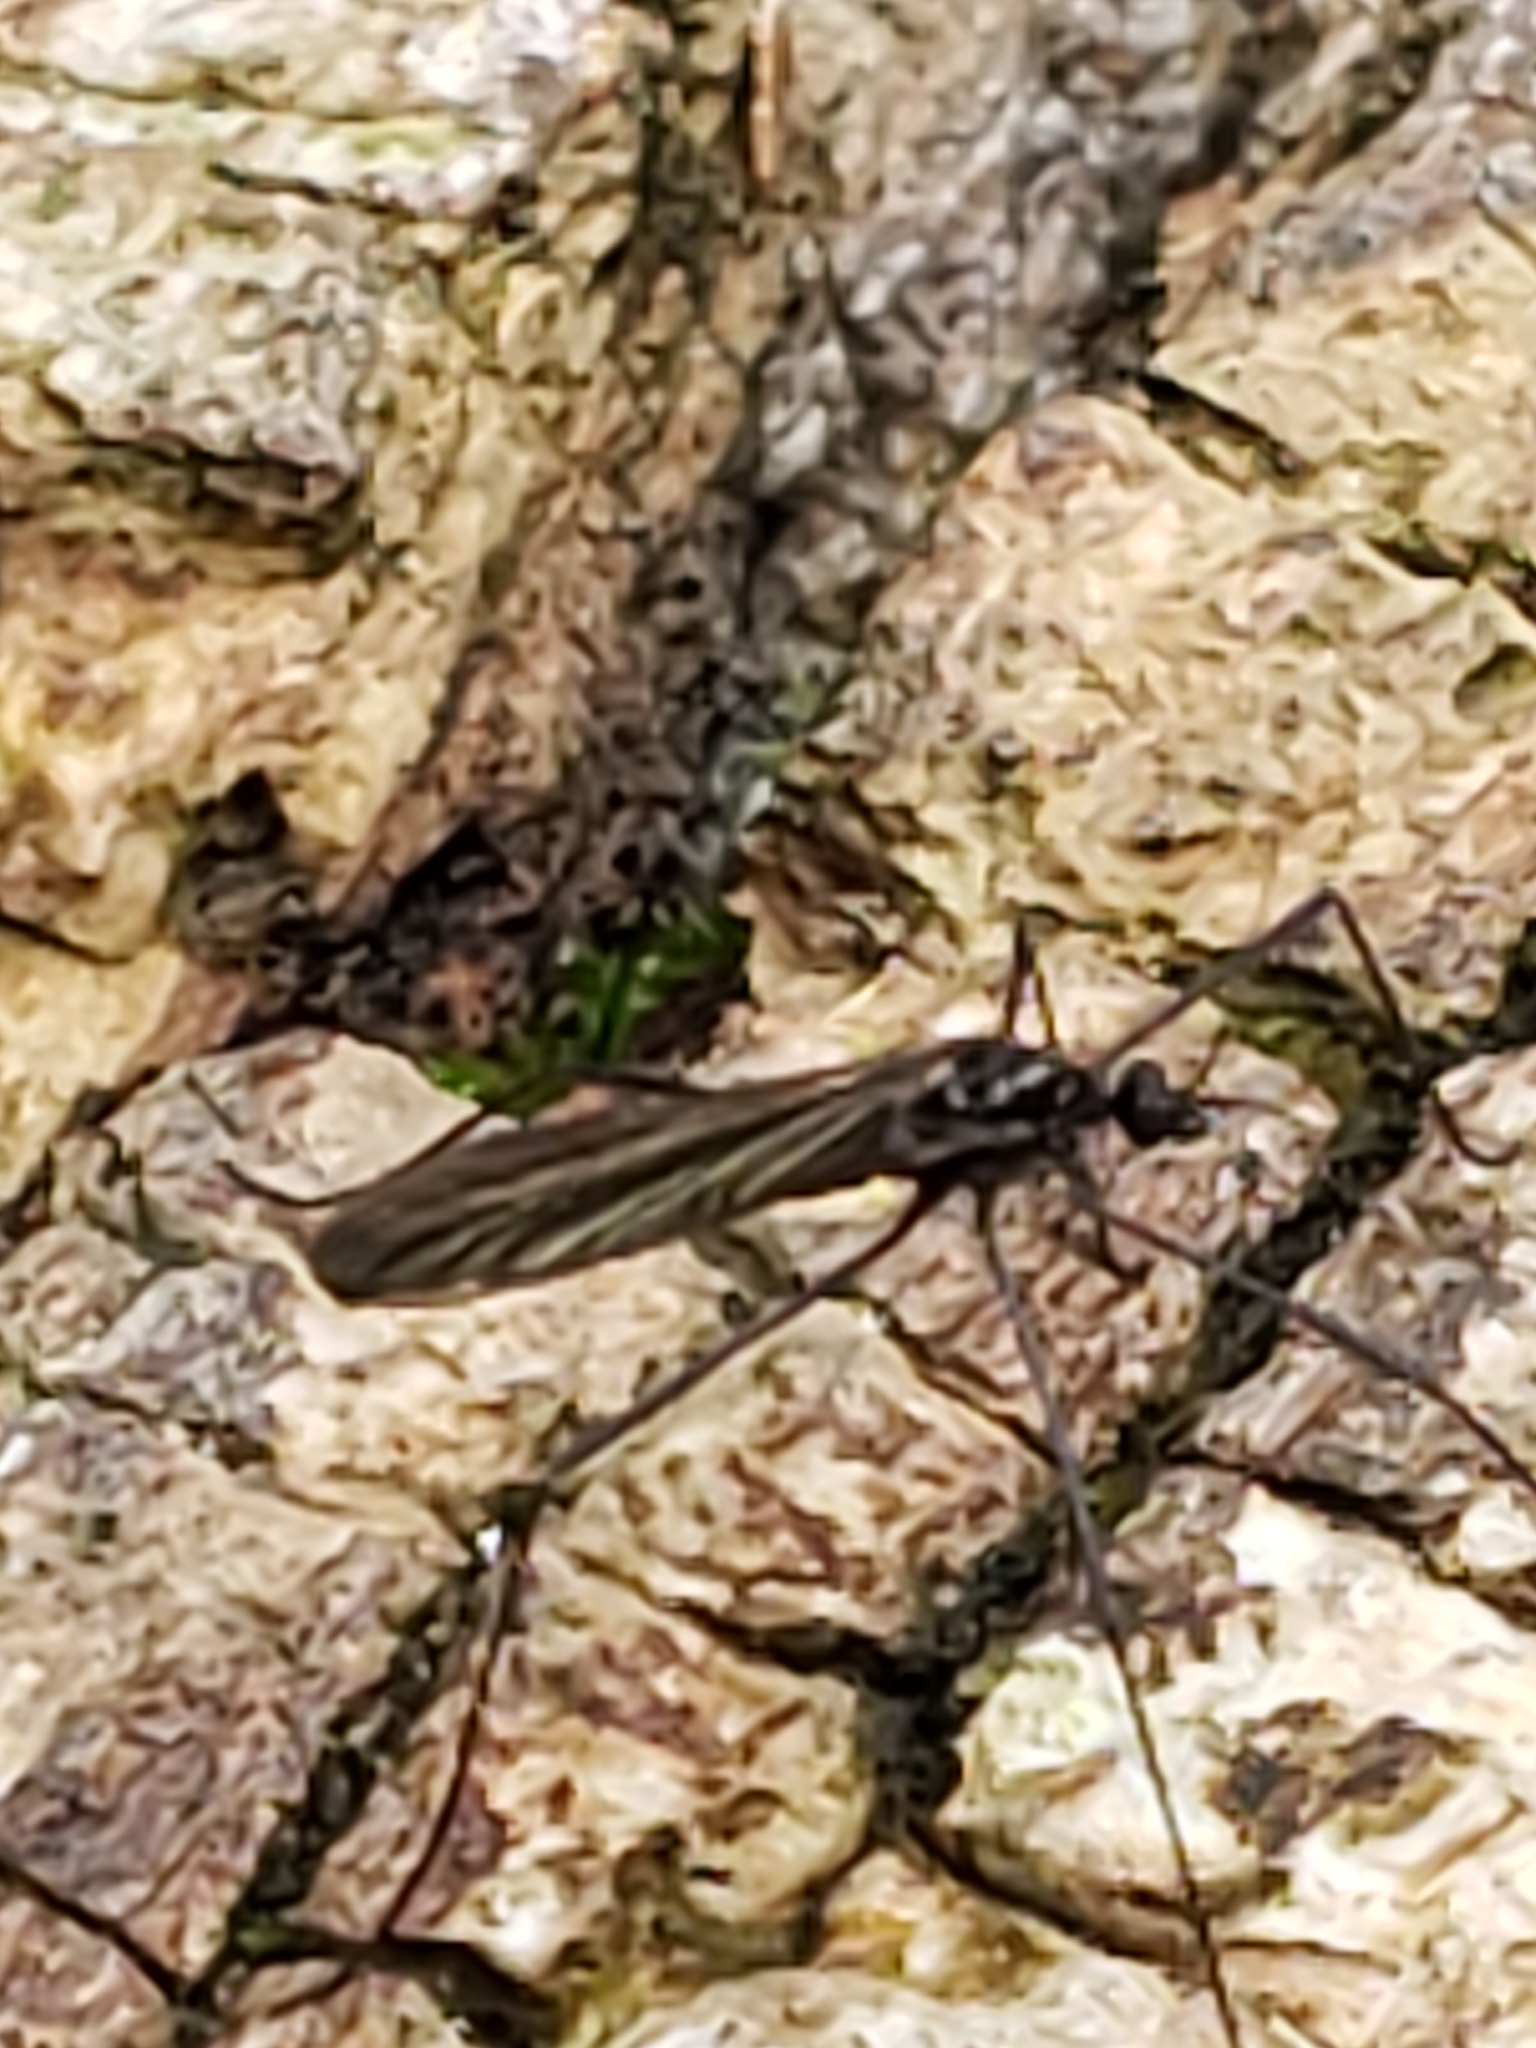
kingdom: Animalia
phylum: Arthropoda
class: Insecta
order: Diptera
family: Limoniidae
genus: Gnophomyia
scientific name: Gnophomyia tristissima
